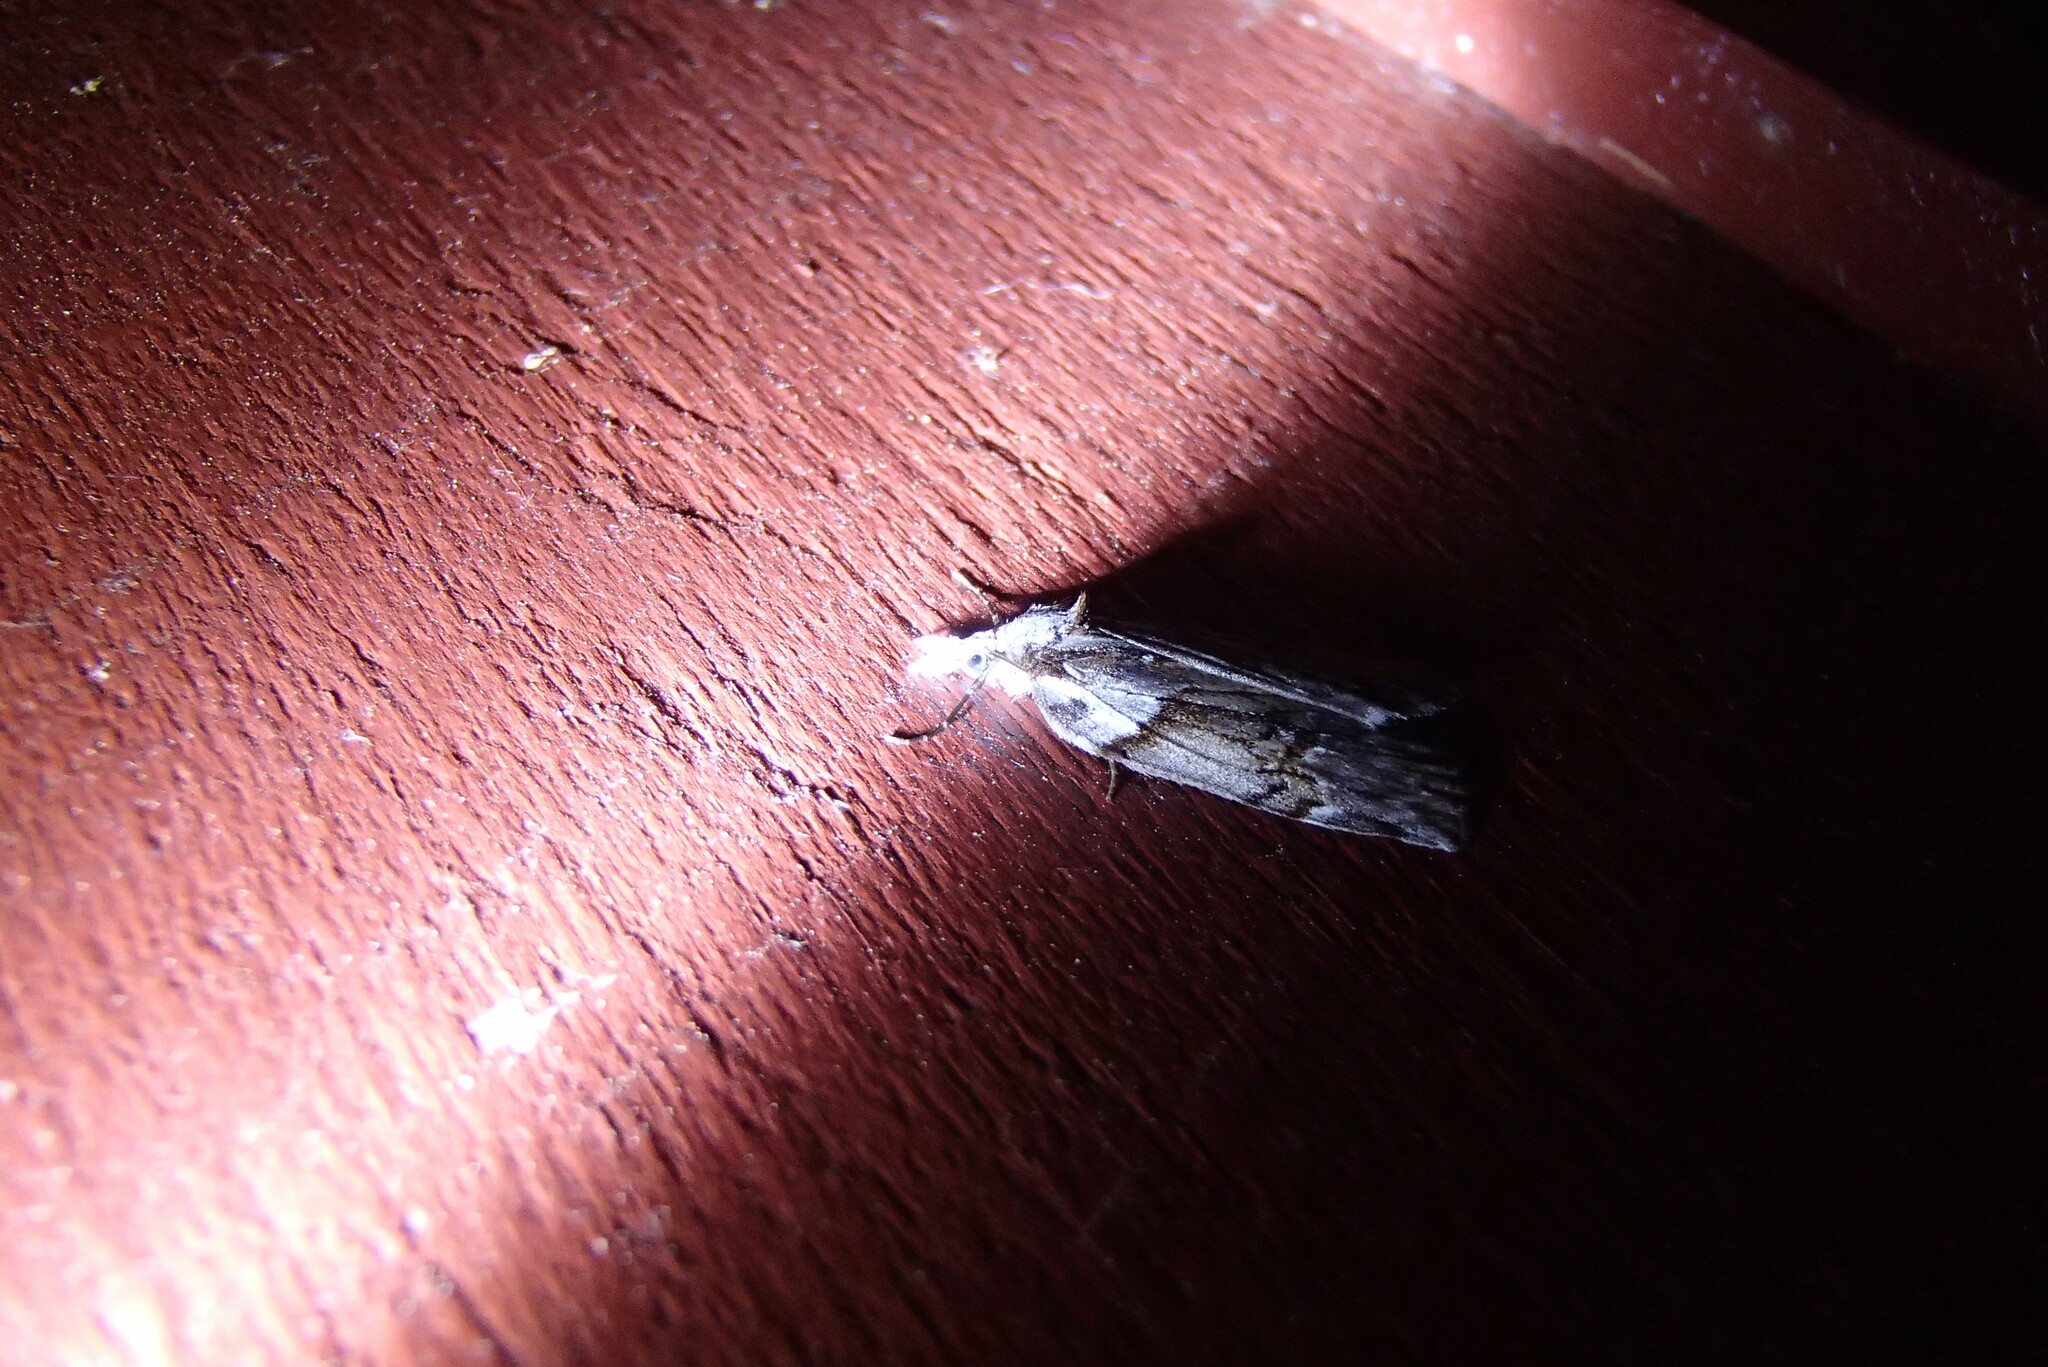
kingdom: Animalia
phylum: Arthropoda
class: Insecta
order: Lepidoptera
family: Geometridae
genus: Neoteristis
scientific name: Neoteristis paraphanes
